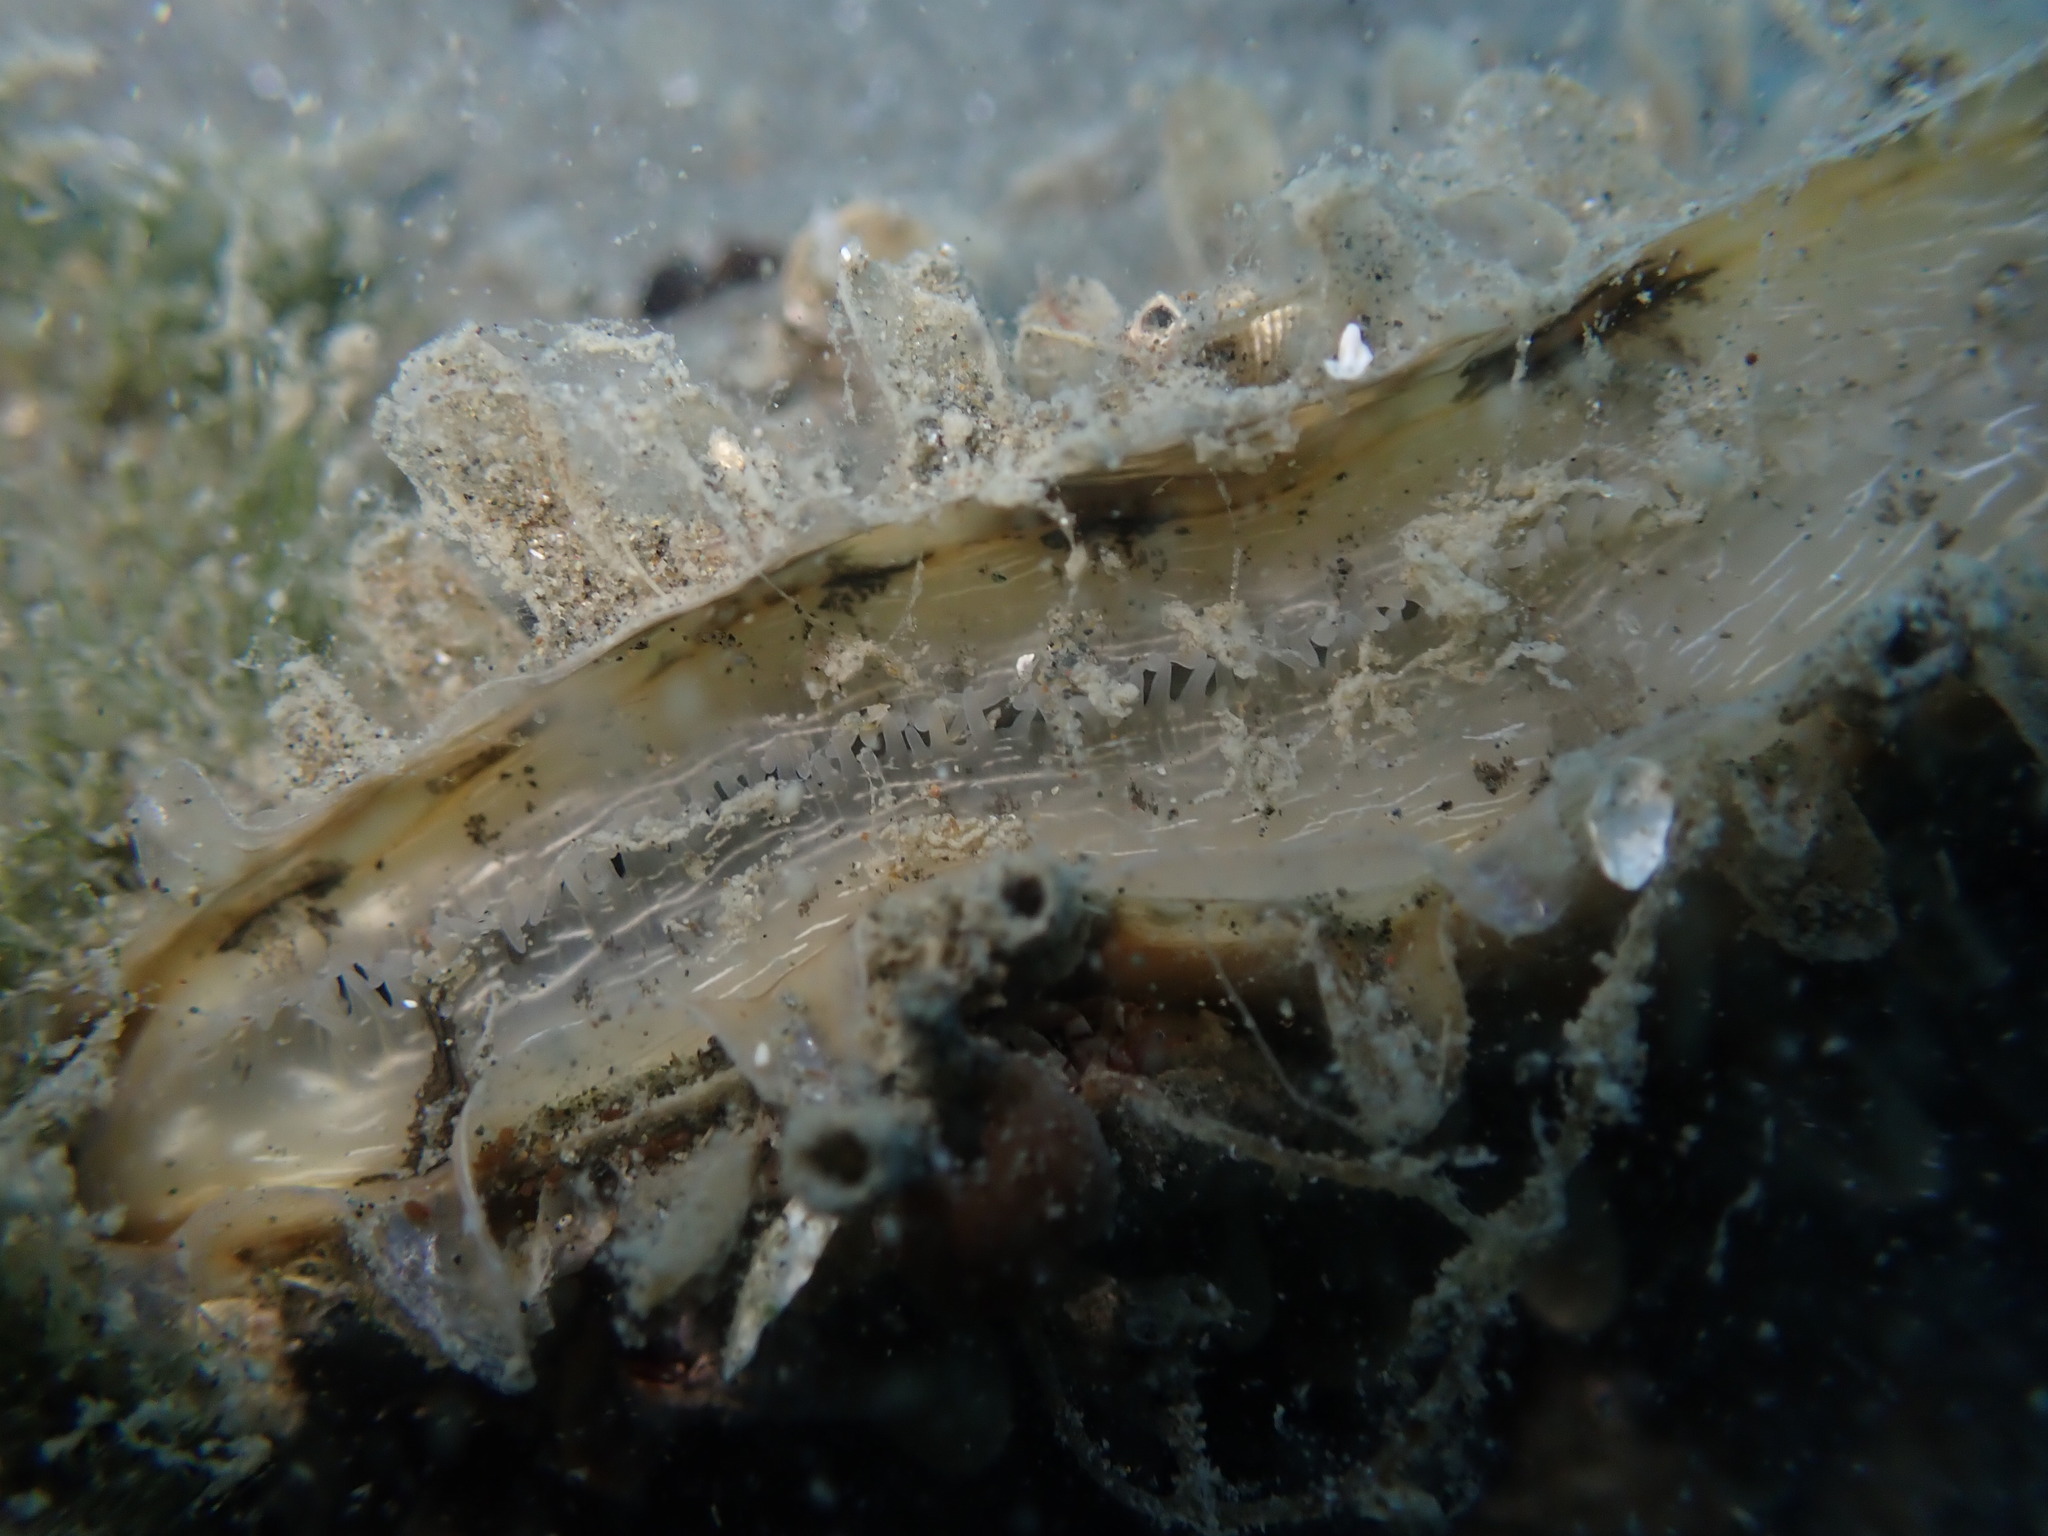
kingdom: Animalia
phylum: Mollusca
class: Bivalvia
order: Ostreida
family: Pinnidae
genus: Atrina
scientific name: Atrina zelandica
